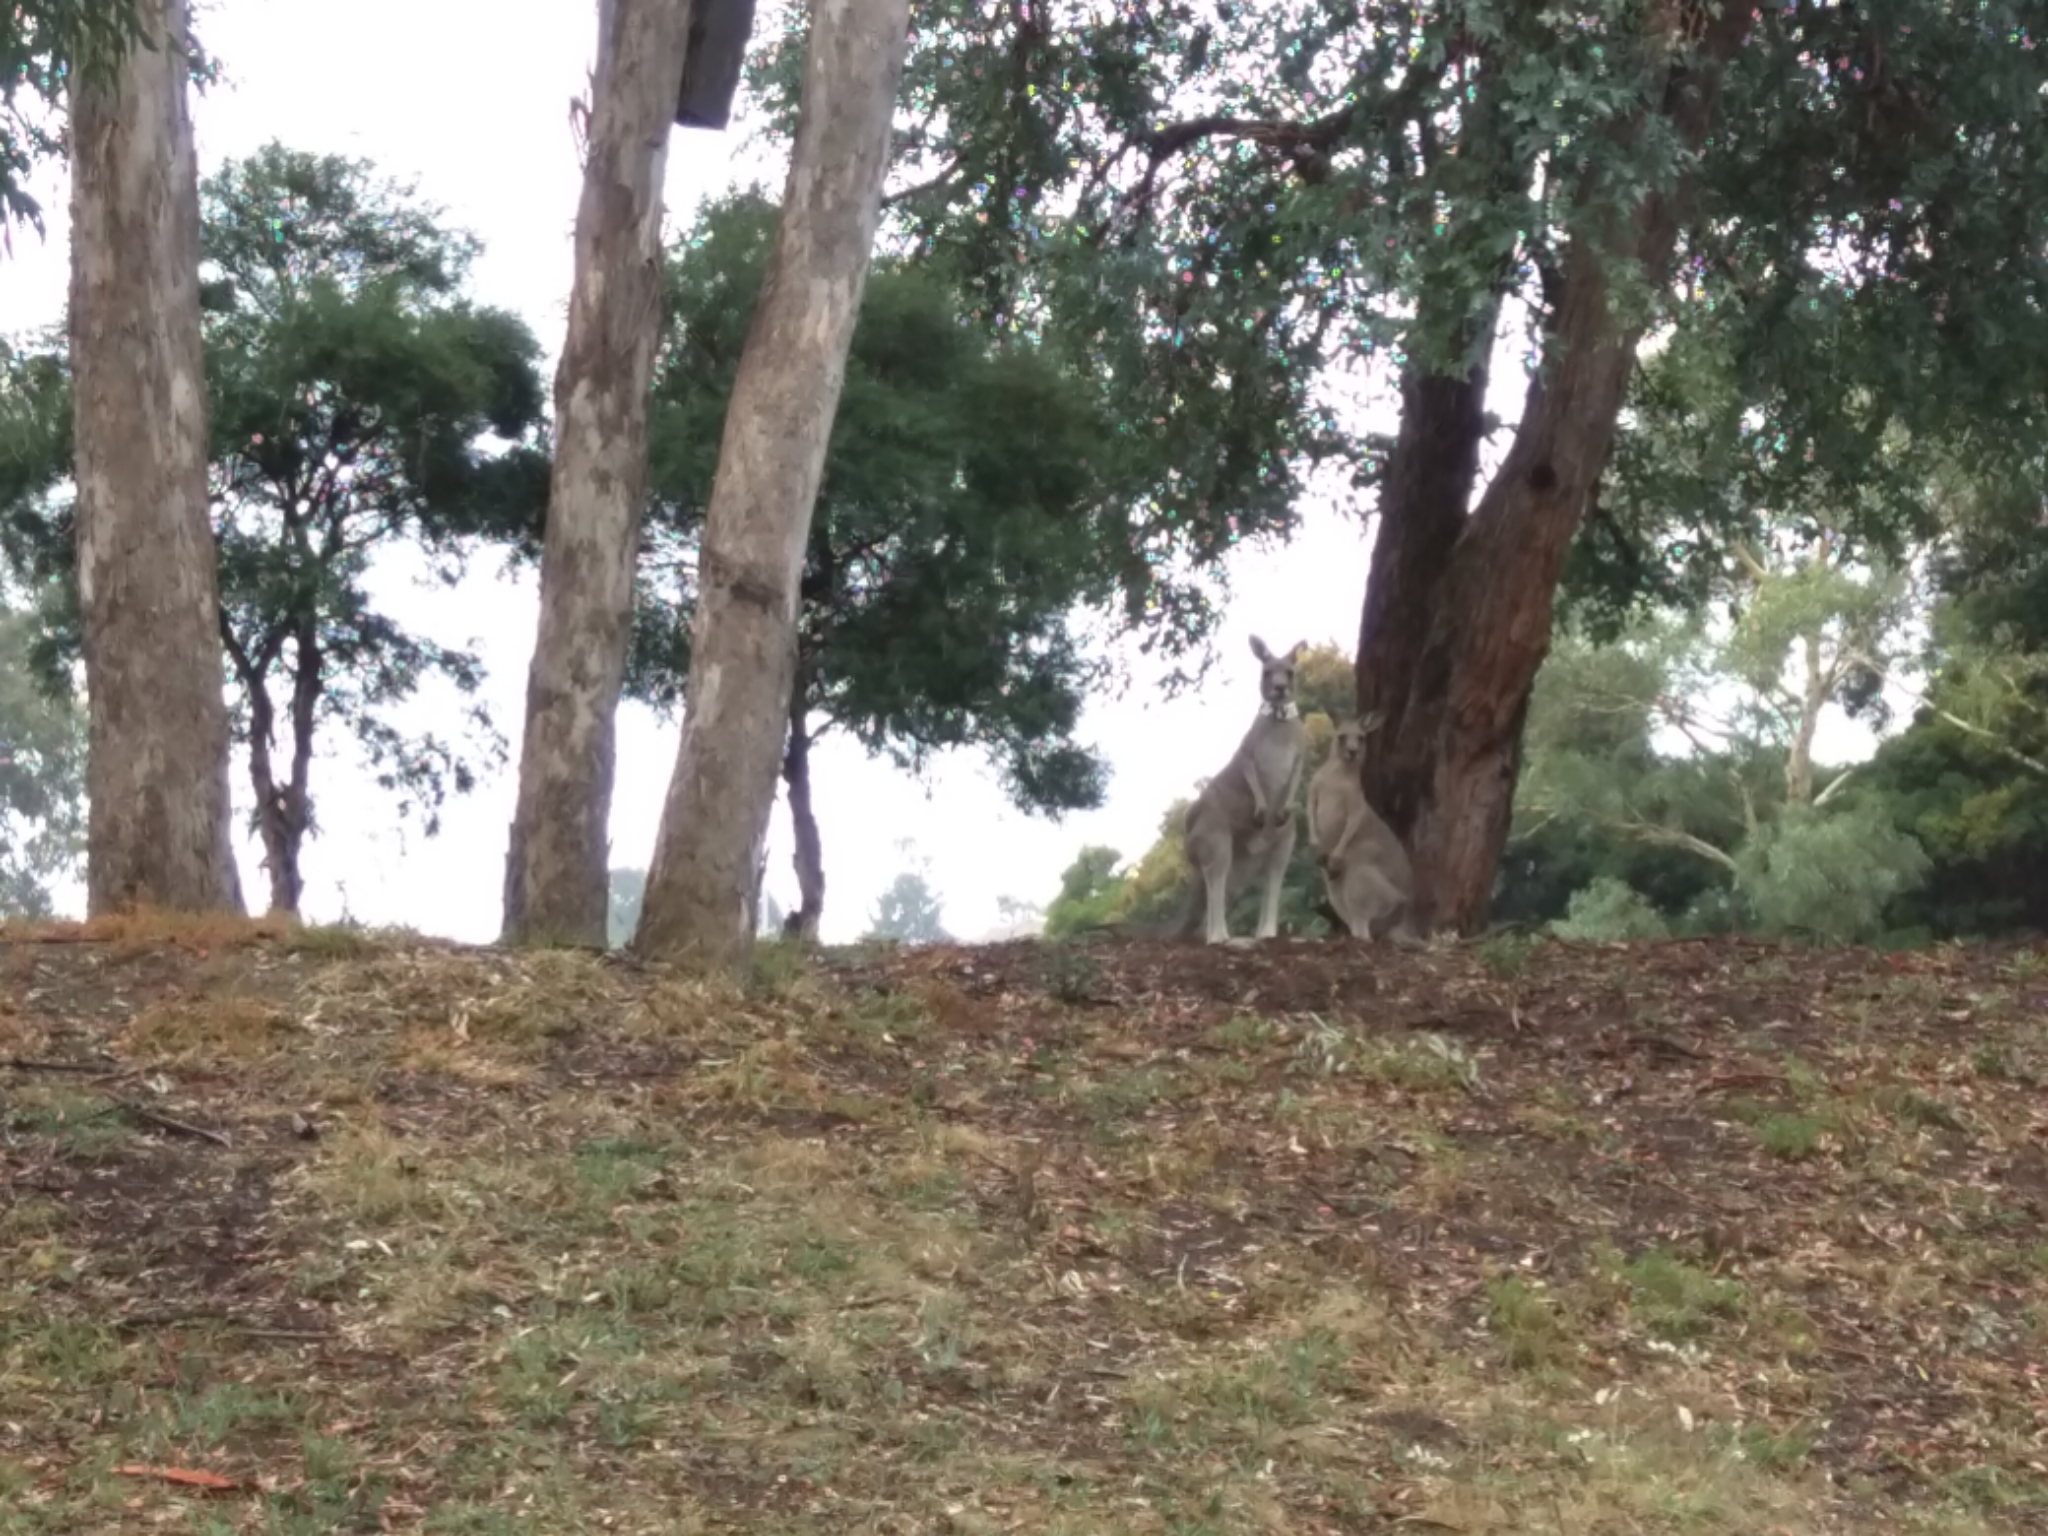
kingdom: Animalia
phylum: Chordata
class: Mammalia
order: Diprotodontia
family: Macropodidae
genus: Macropus
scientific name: Macropus giganteus
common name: Eastern grey kangaroo
